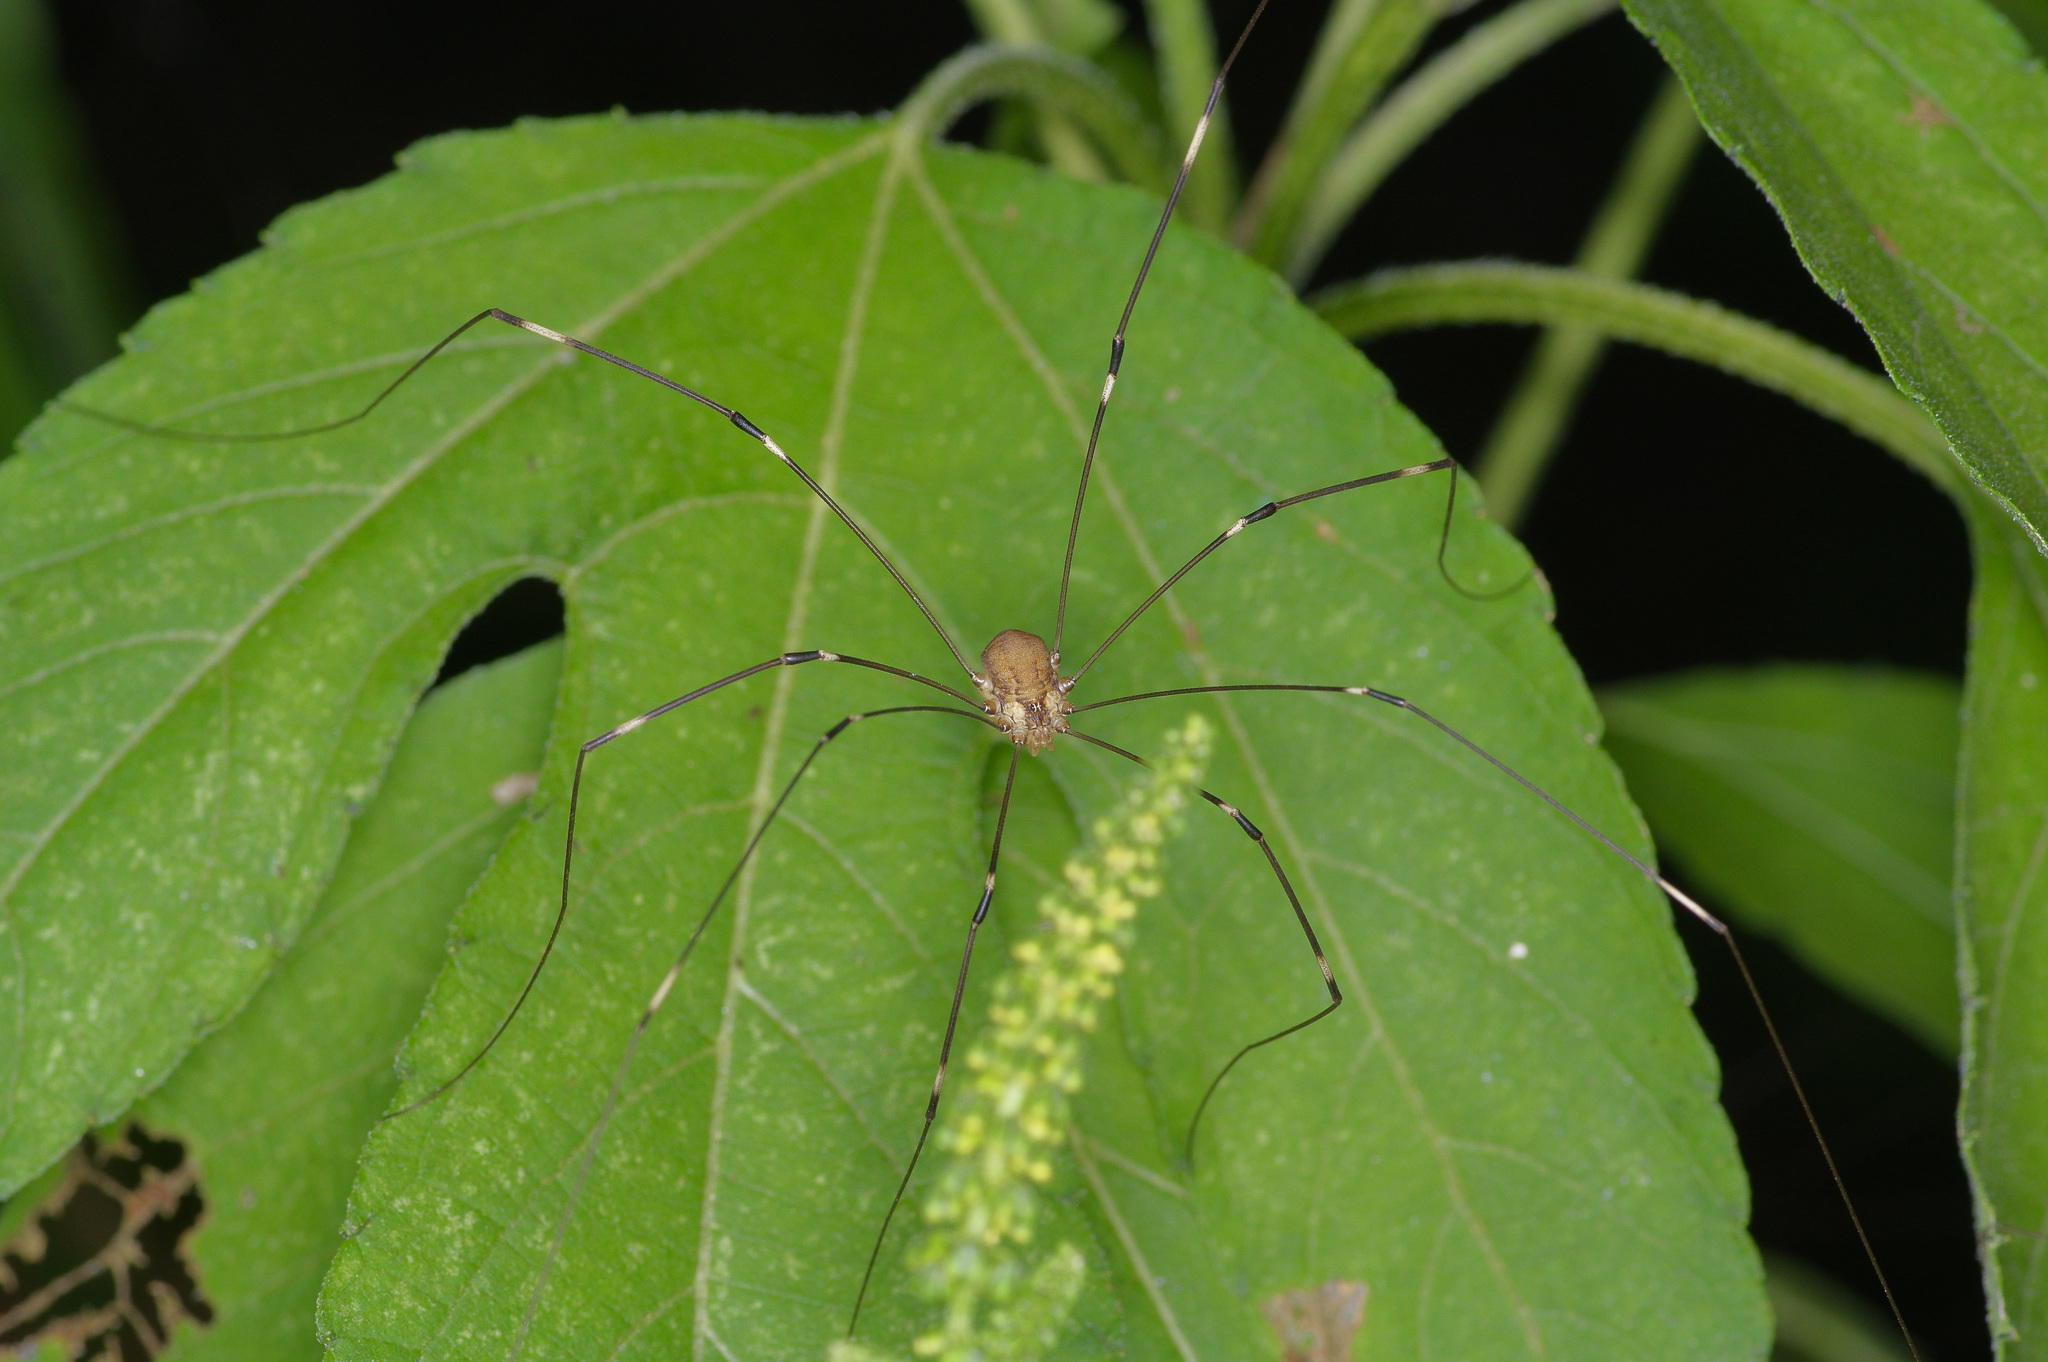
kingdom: Animalia
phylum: Arthropoda
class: Arachnida
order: Opiliones
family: Sclerosomatidae
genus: Leiobunum
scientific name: Leiobunum townsendi
